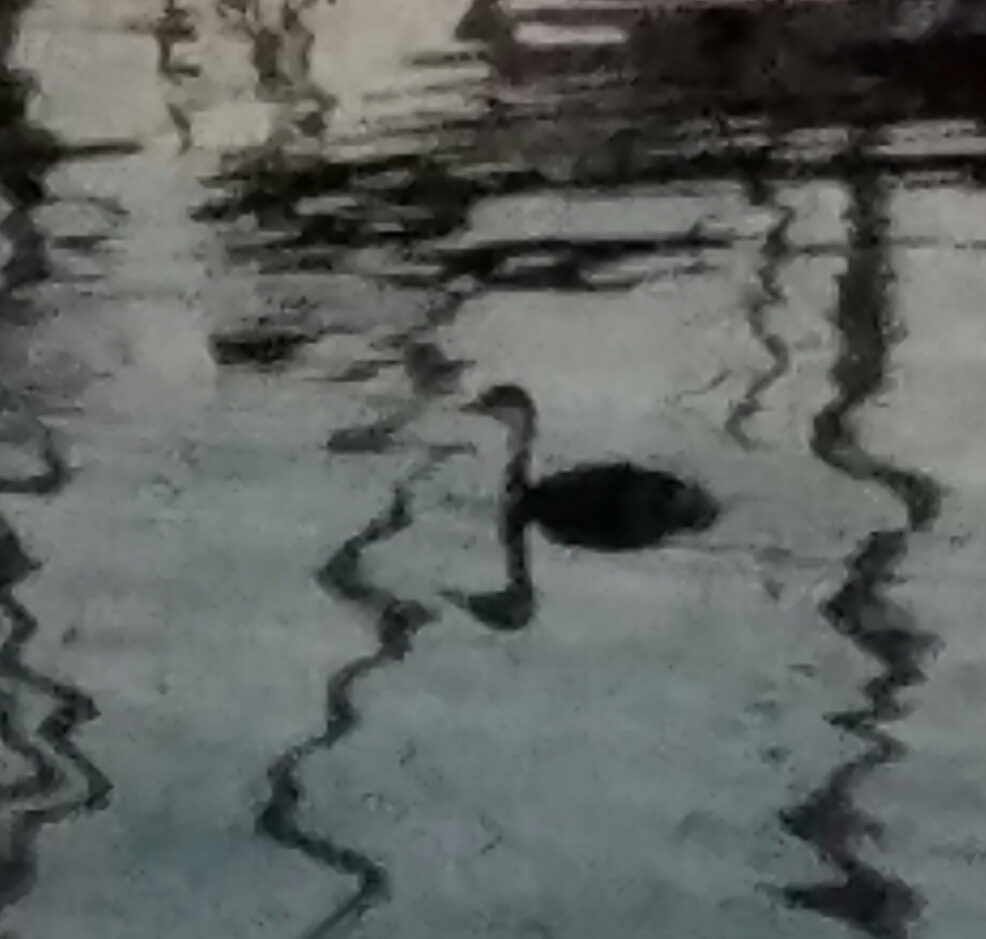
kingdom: Animalia
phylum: Chordata
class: Aves
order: Podicipediformes
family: Podicipedidae
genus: Podiceps
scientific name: Podiceps auritus
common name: Horned grebe
